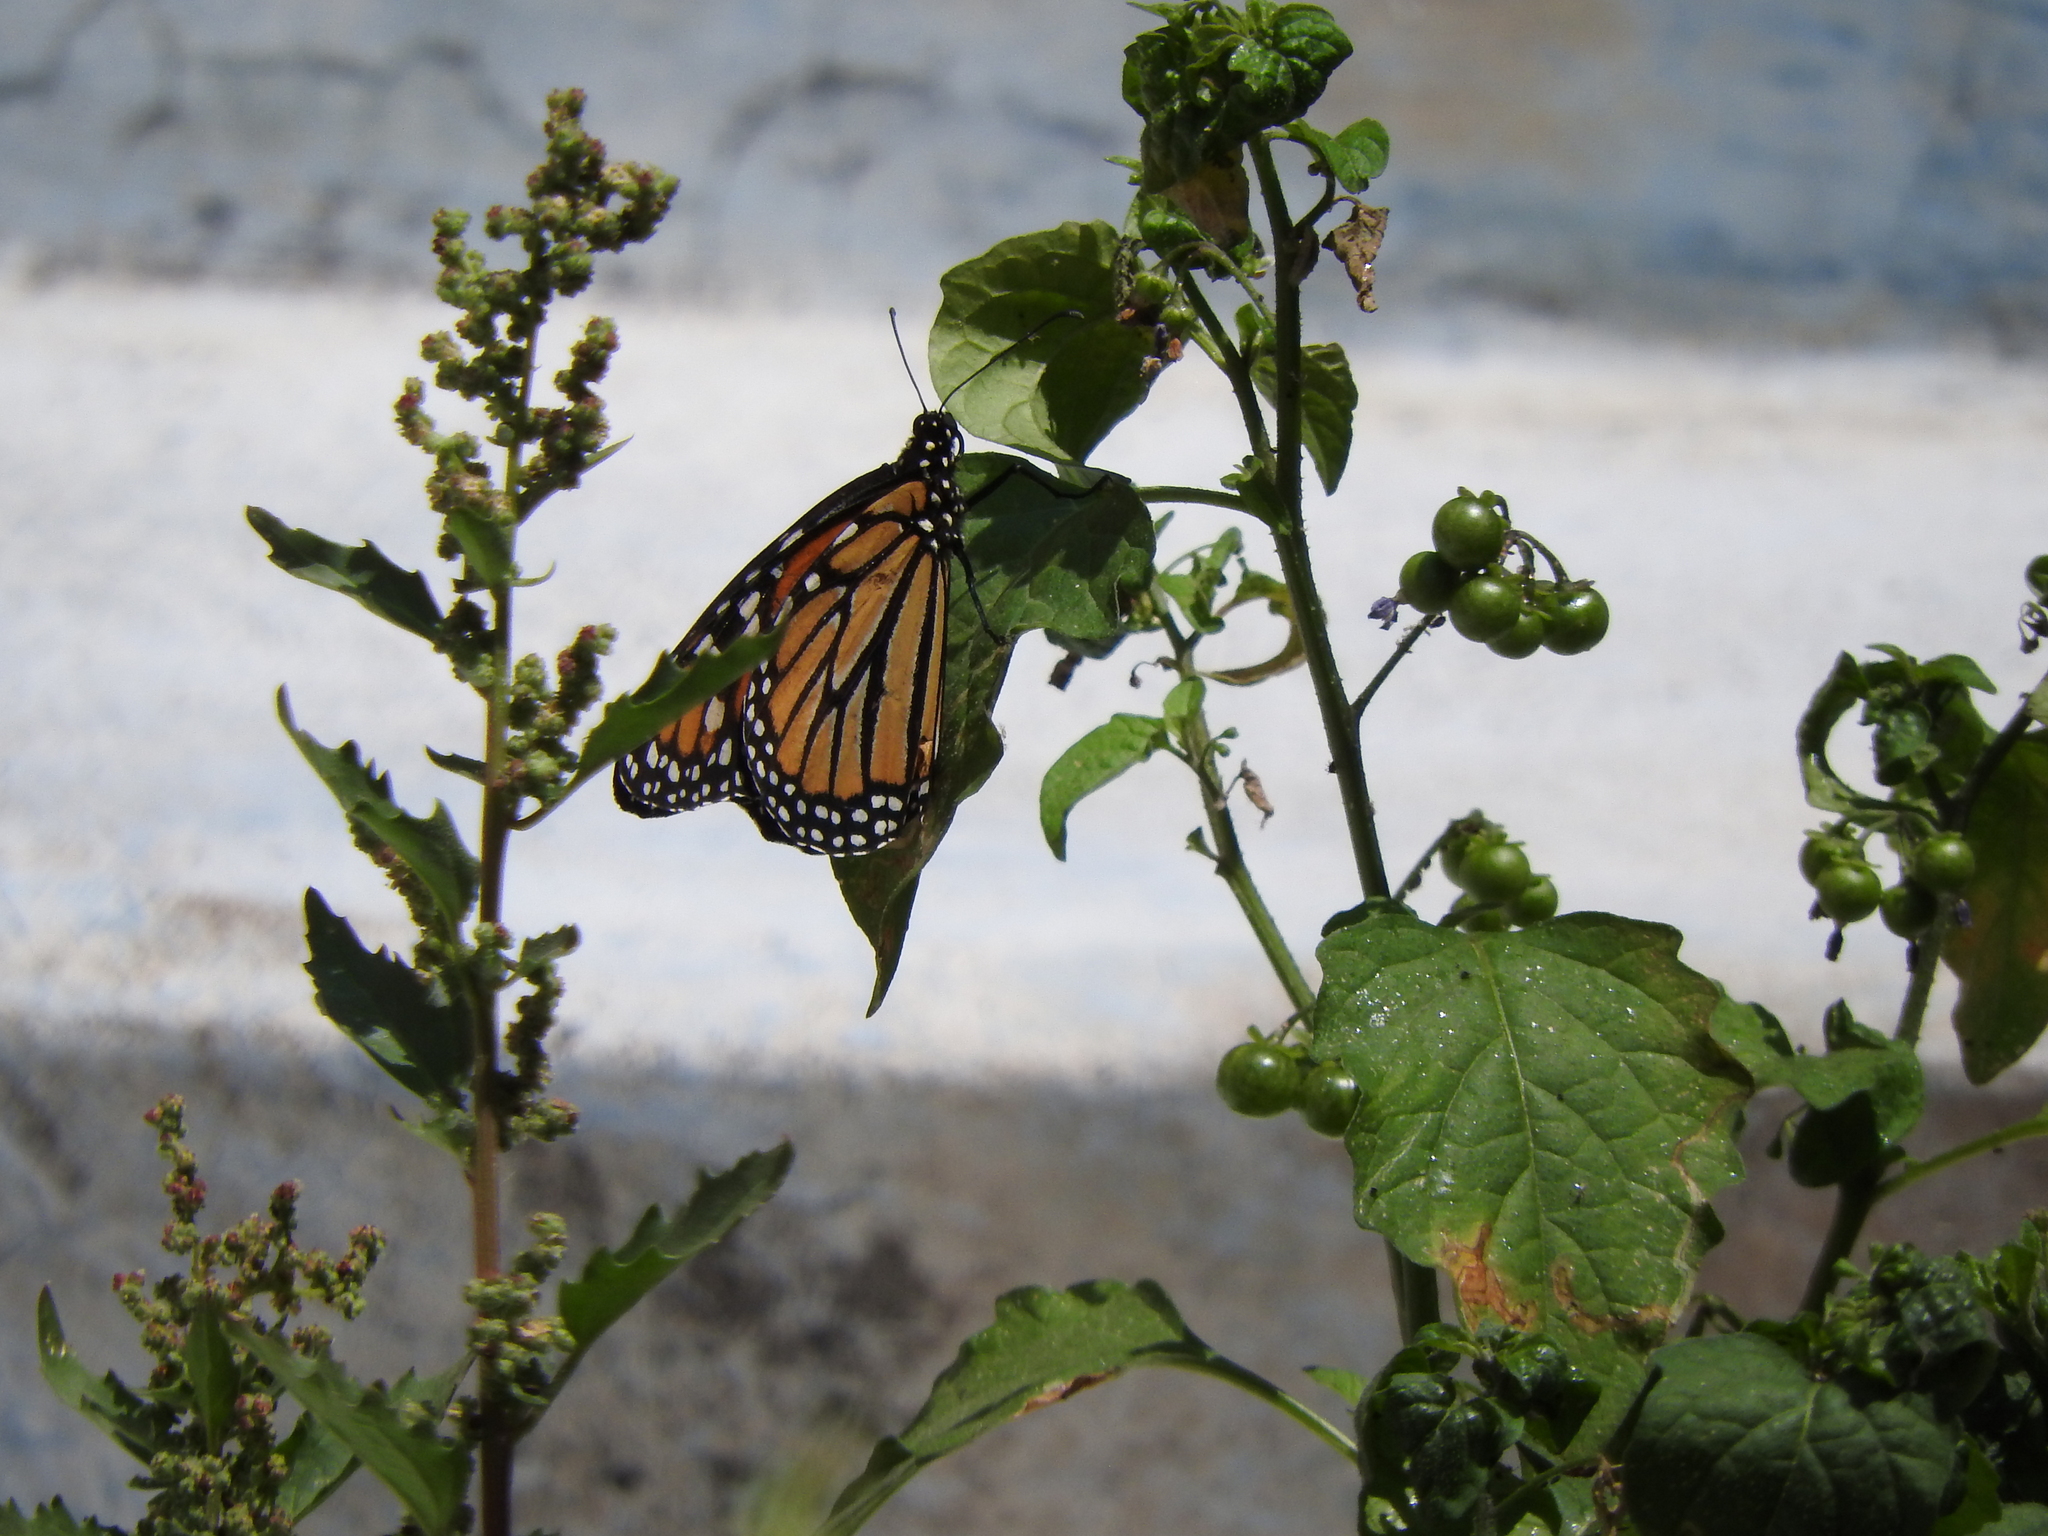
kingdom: Animalia
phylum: Arthropoda
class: Insecta
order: Lepidoptera
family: Nymphalidae
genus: Danaus
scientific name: Danaus plexippus
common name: Monarch
